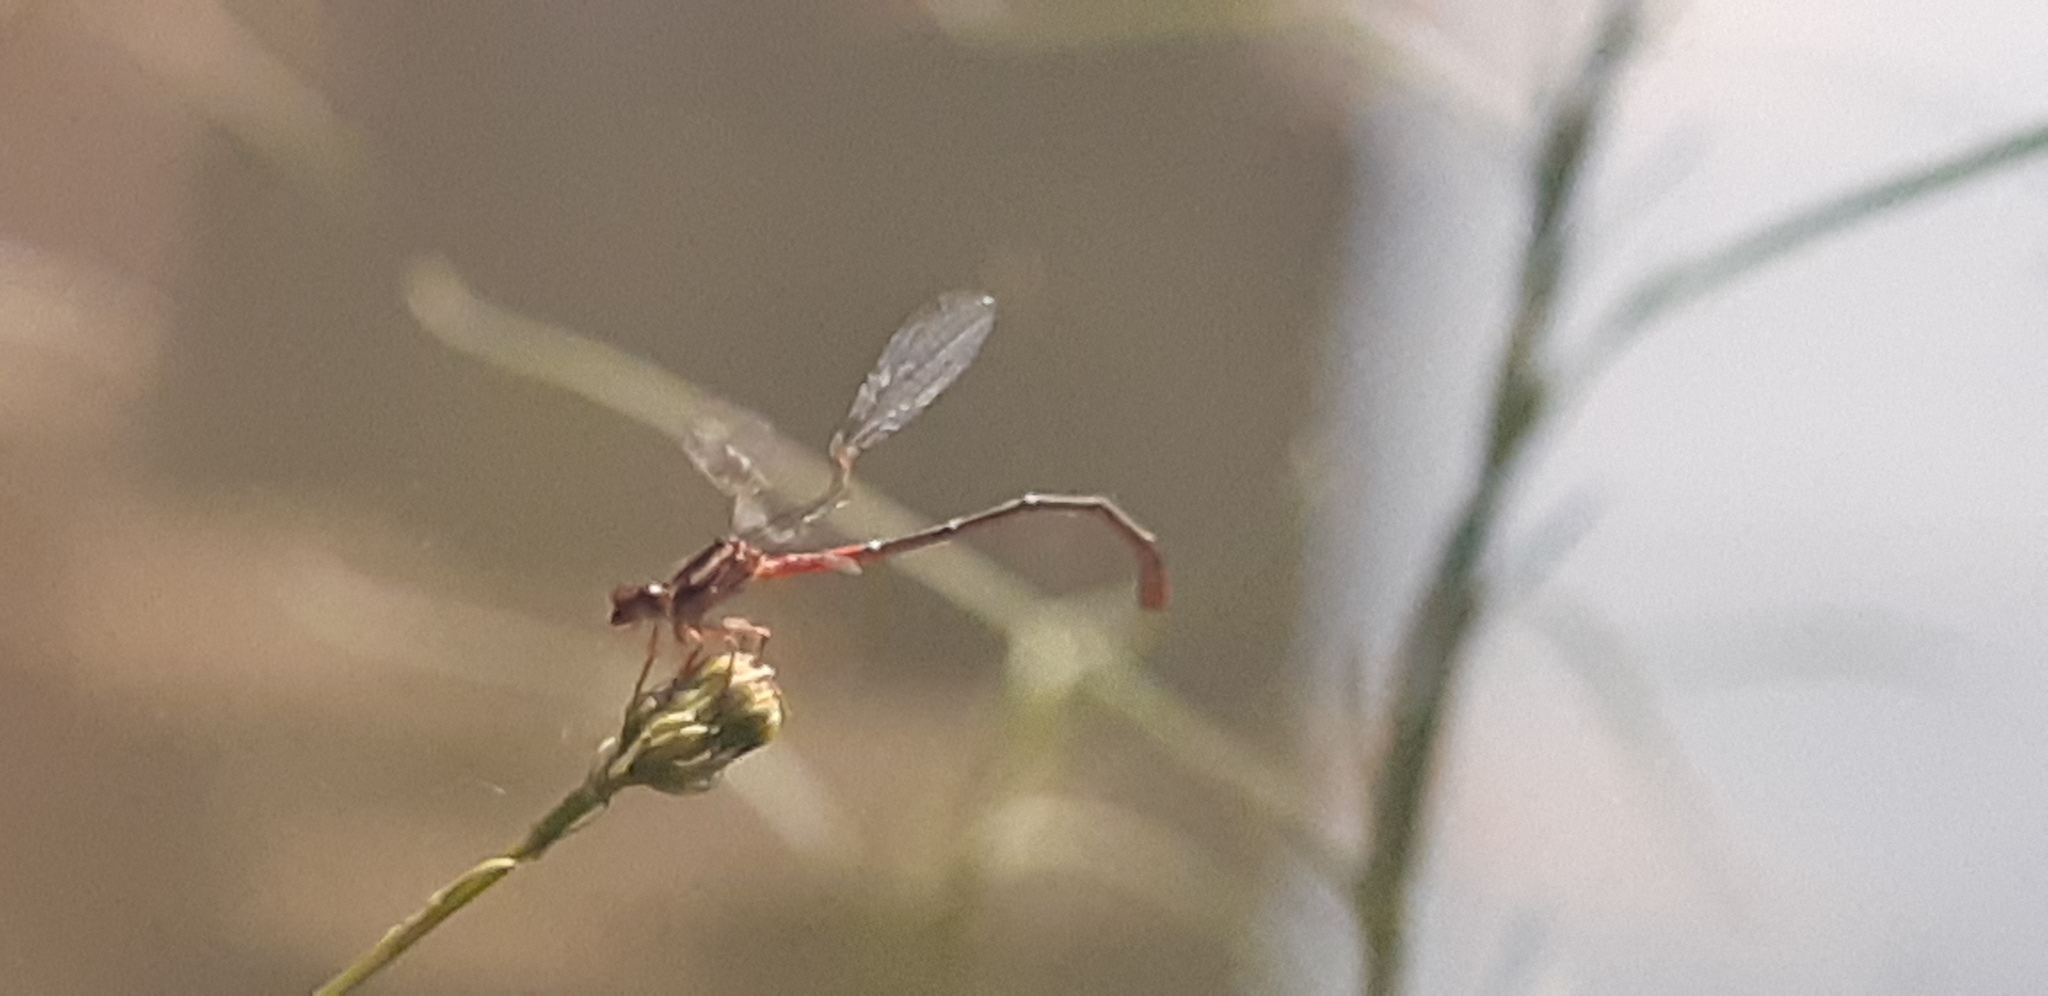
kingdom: Animalia
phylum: Arthropoda
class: Insecta
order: Odonata
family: Coenagrionidae
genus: Ceriagrion
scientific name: Ceriagrion tenellum
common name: Small red damselfly
